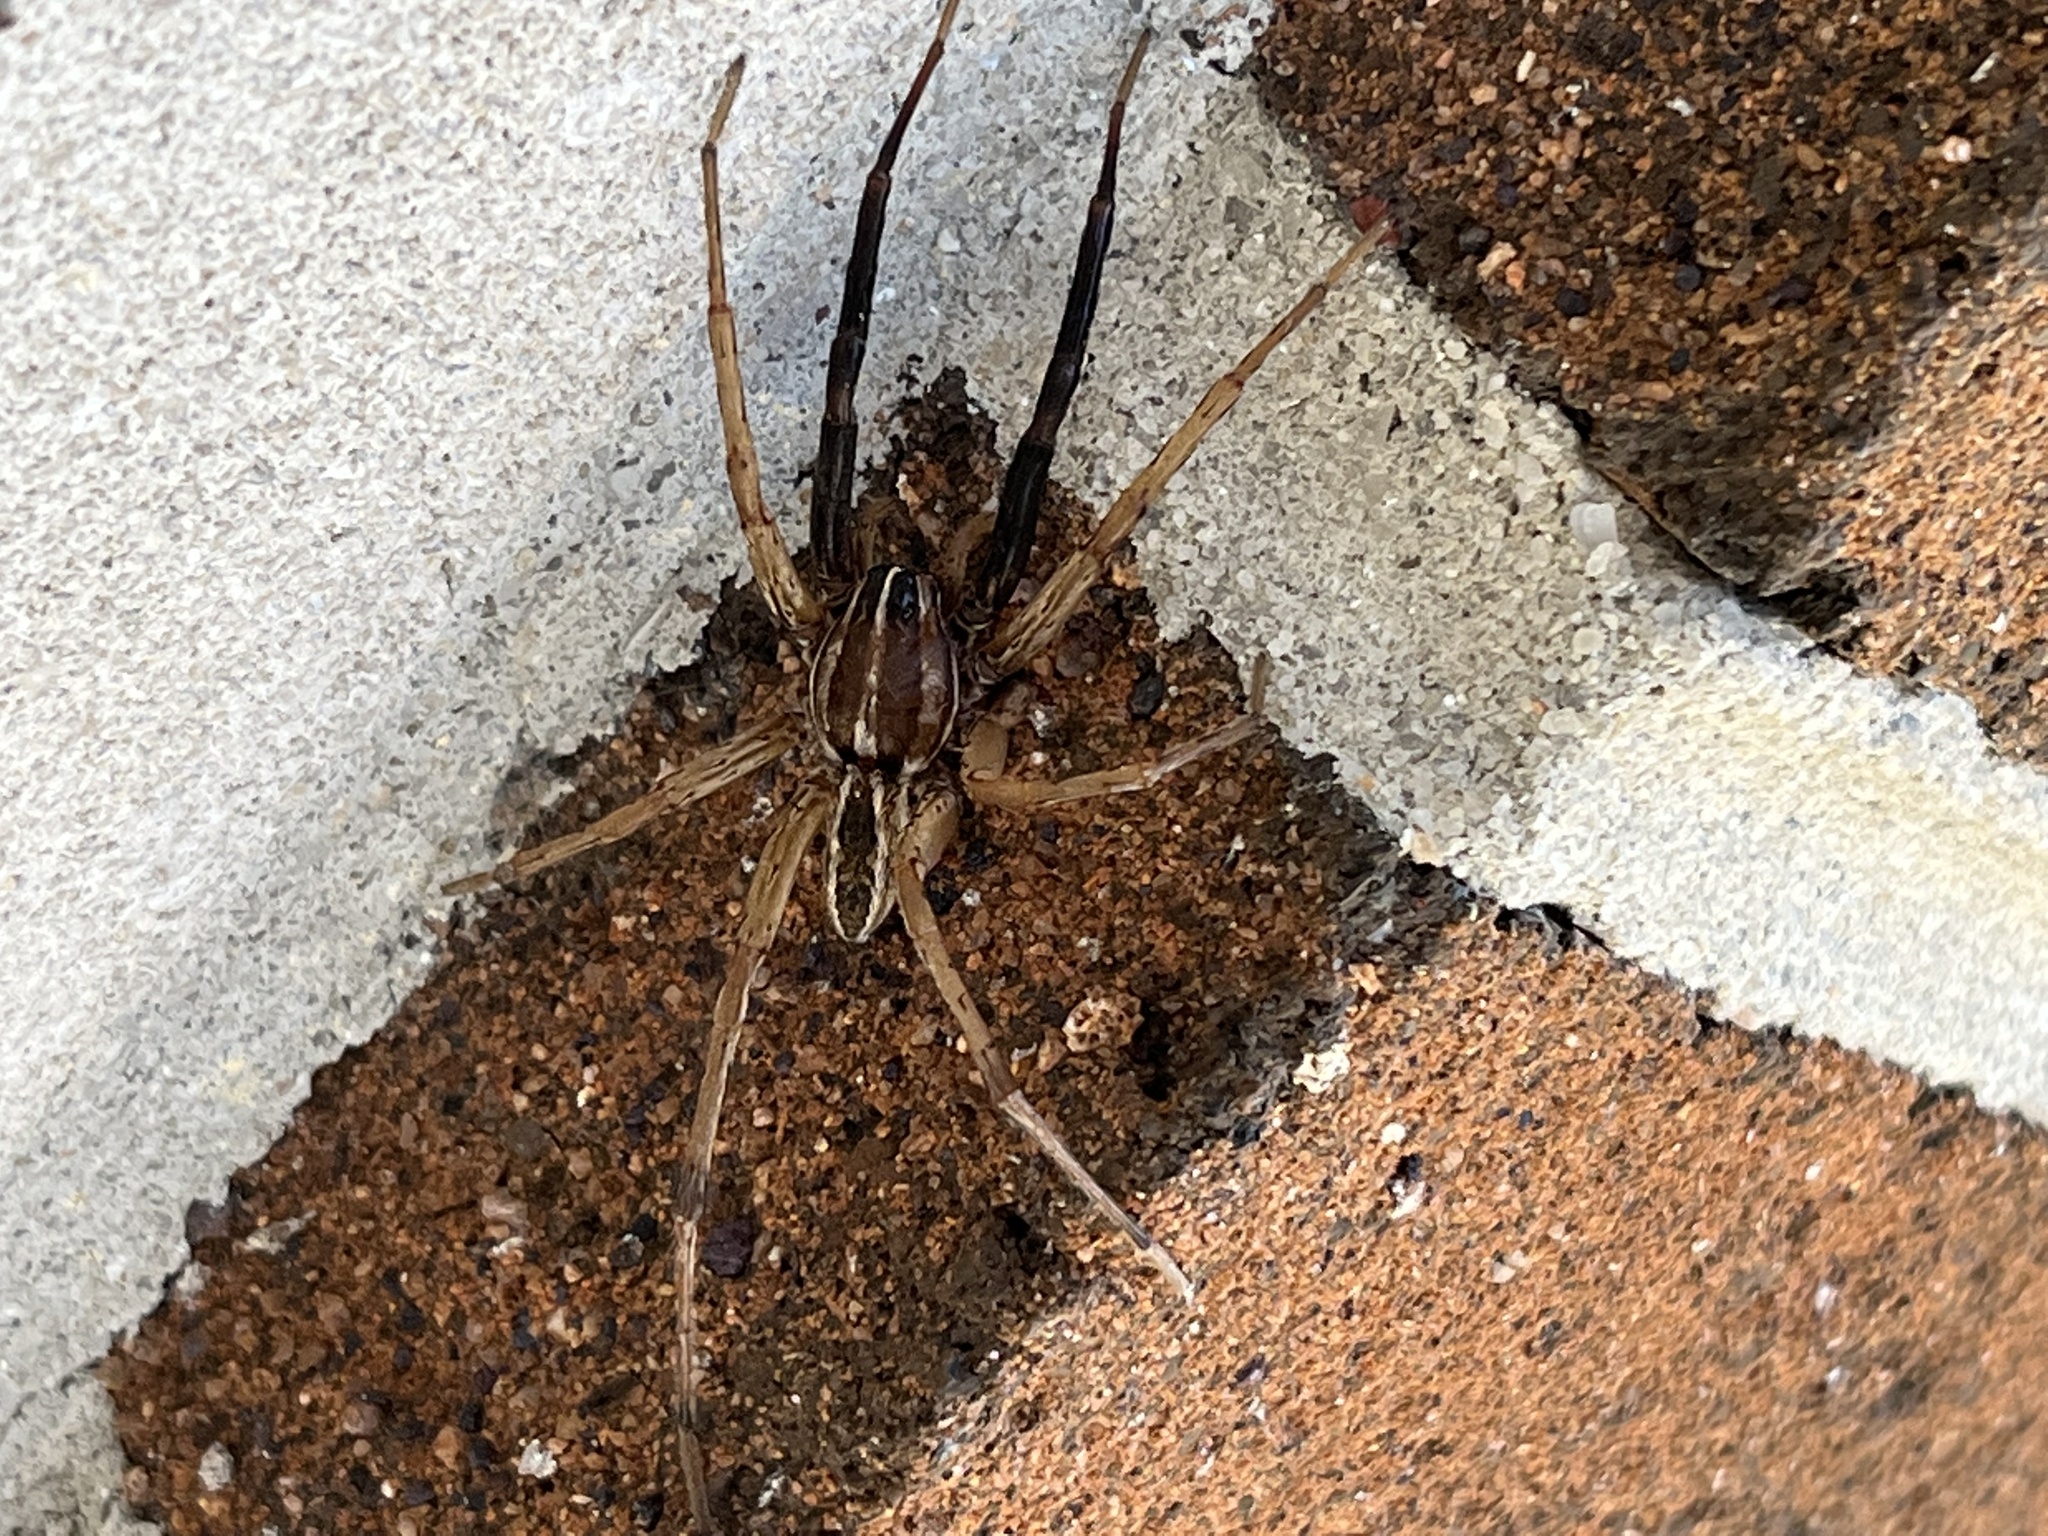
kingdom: Animalia
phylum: Arthropoda
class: Arachnida
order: Araneae
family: Lycosidae
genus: Rabidosa
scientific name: Rabidosa rabida
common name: Rabid wolf spider
